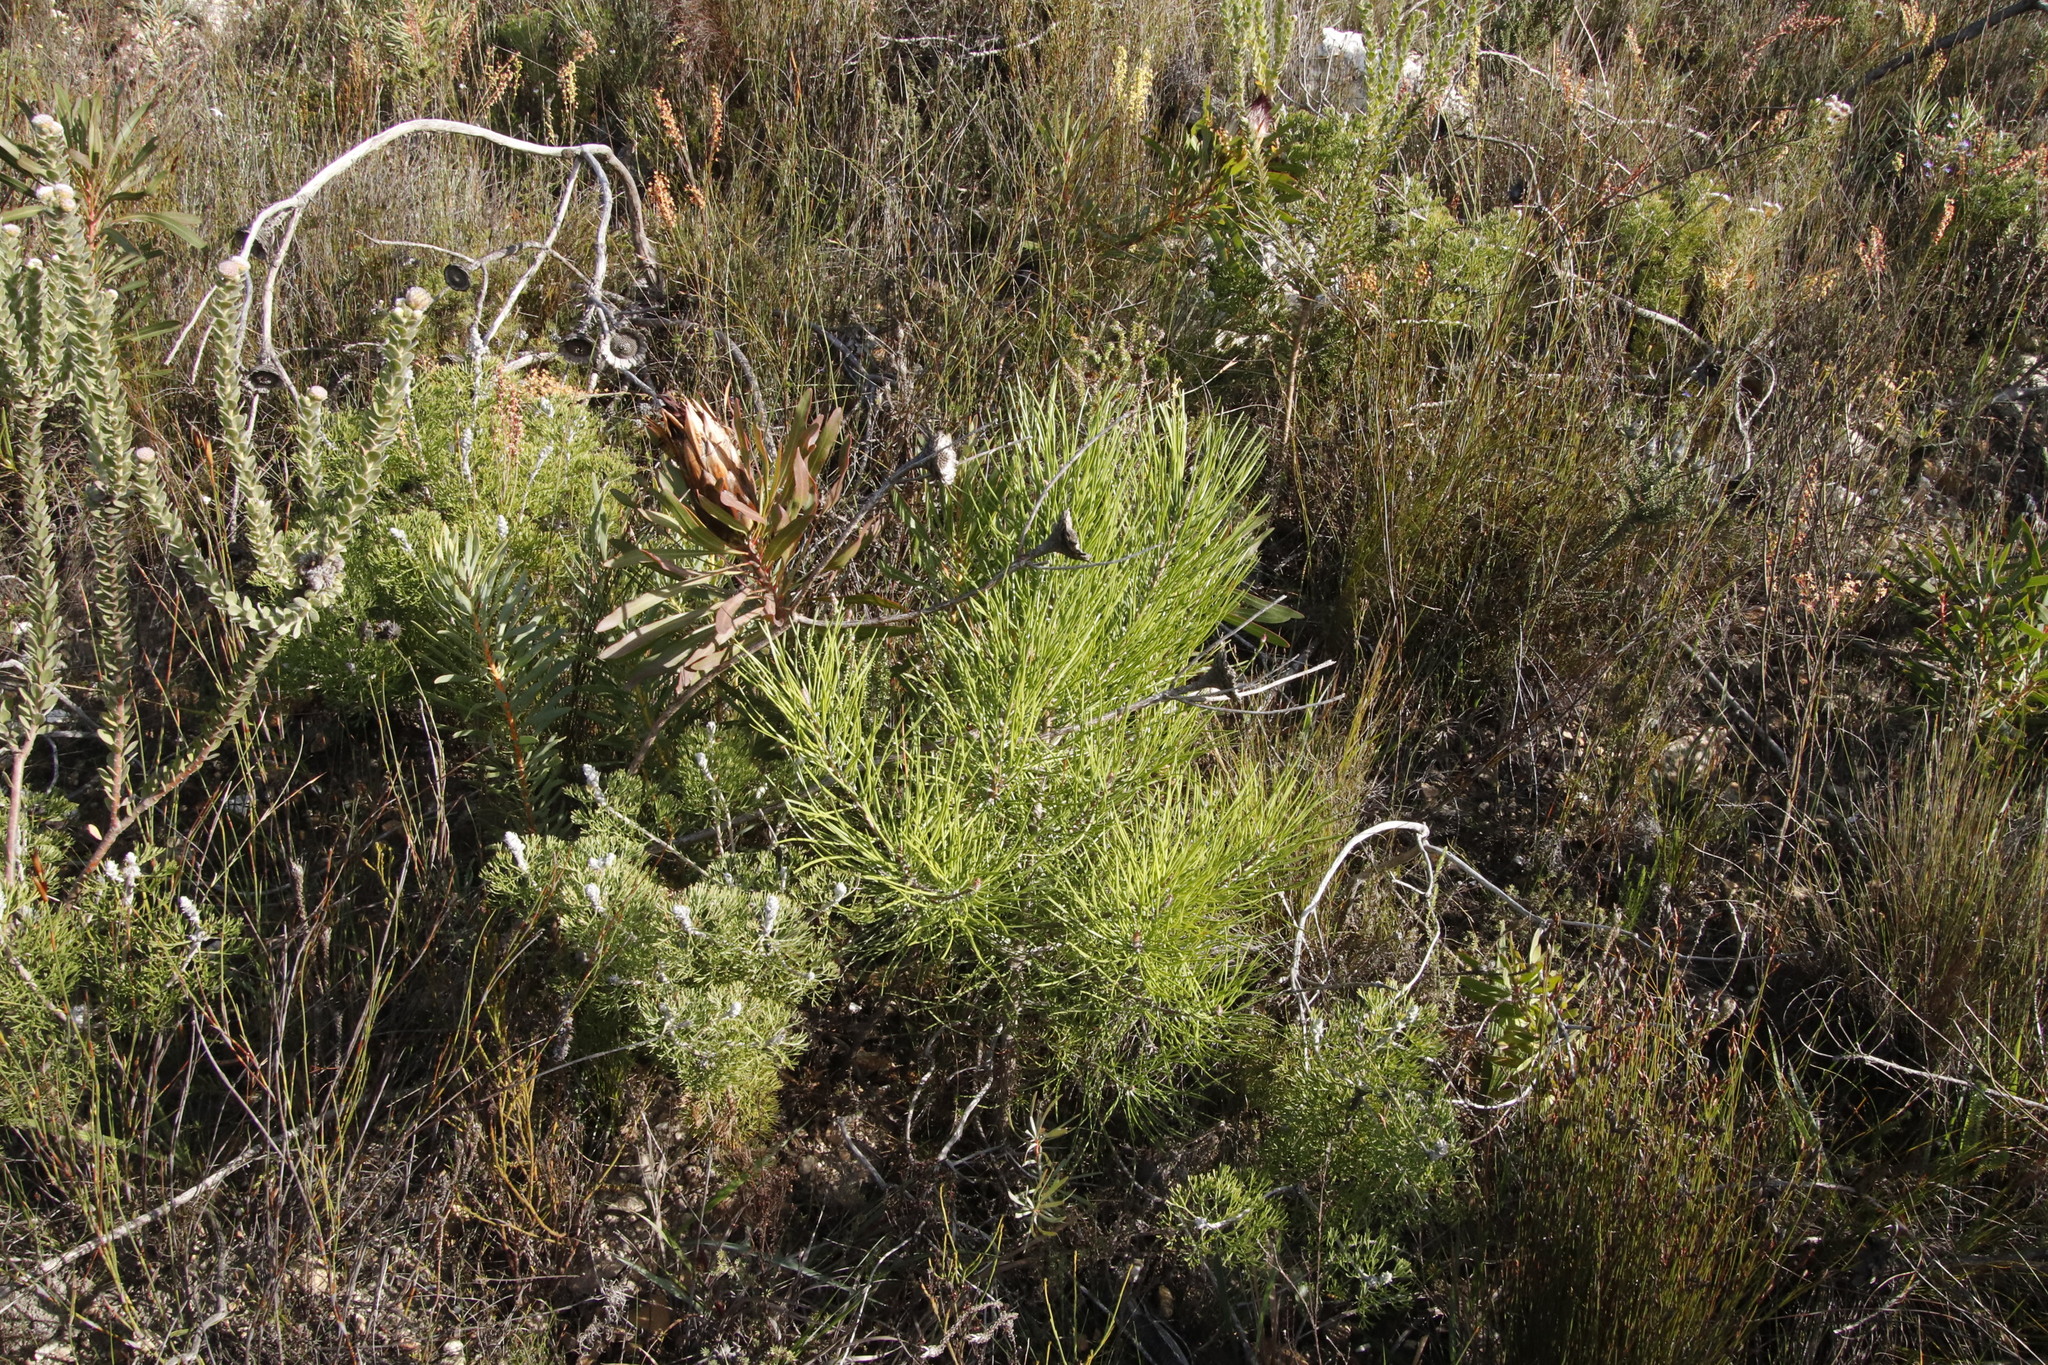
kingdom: Plantae
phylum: Tracheophyta
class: Pinopsida
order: Pinales
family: Pinaceae
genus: Pinus
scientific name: Pinus pinaster
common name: Maritime pine
